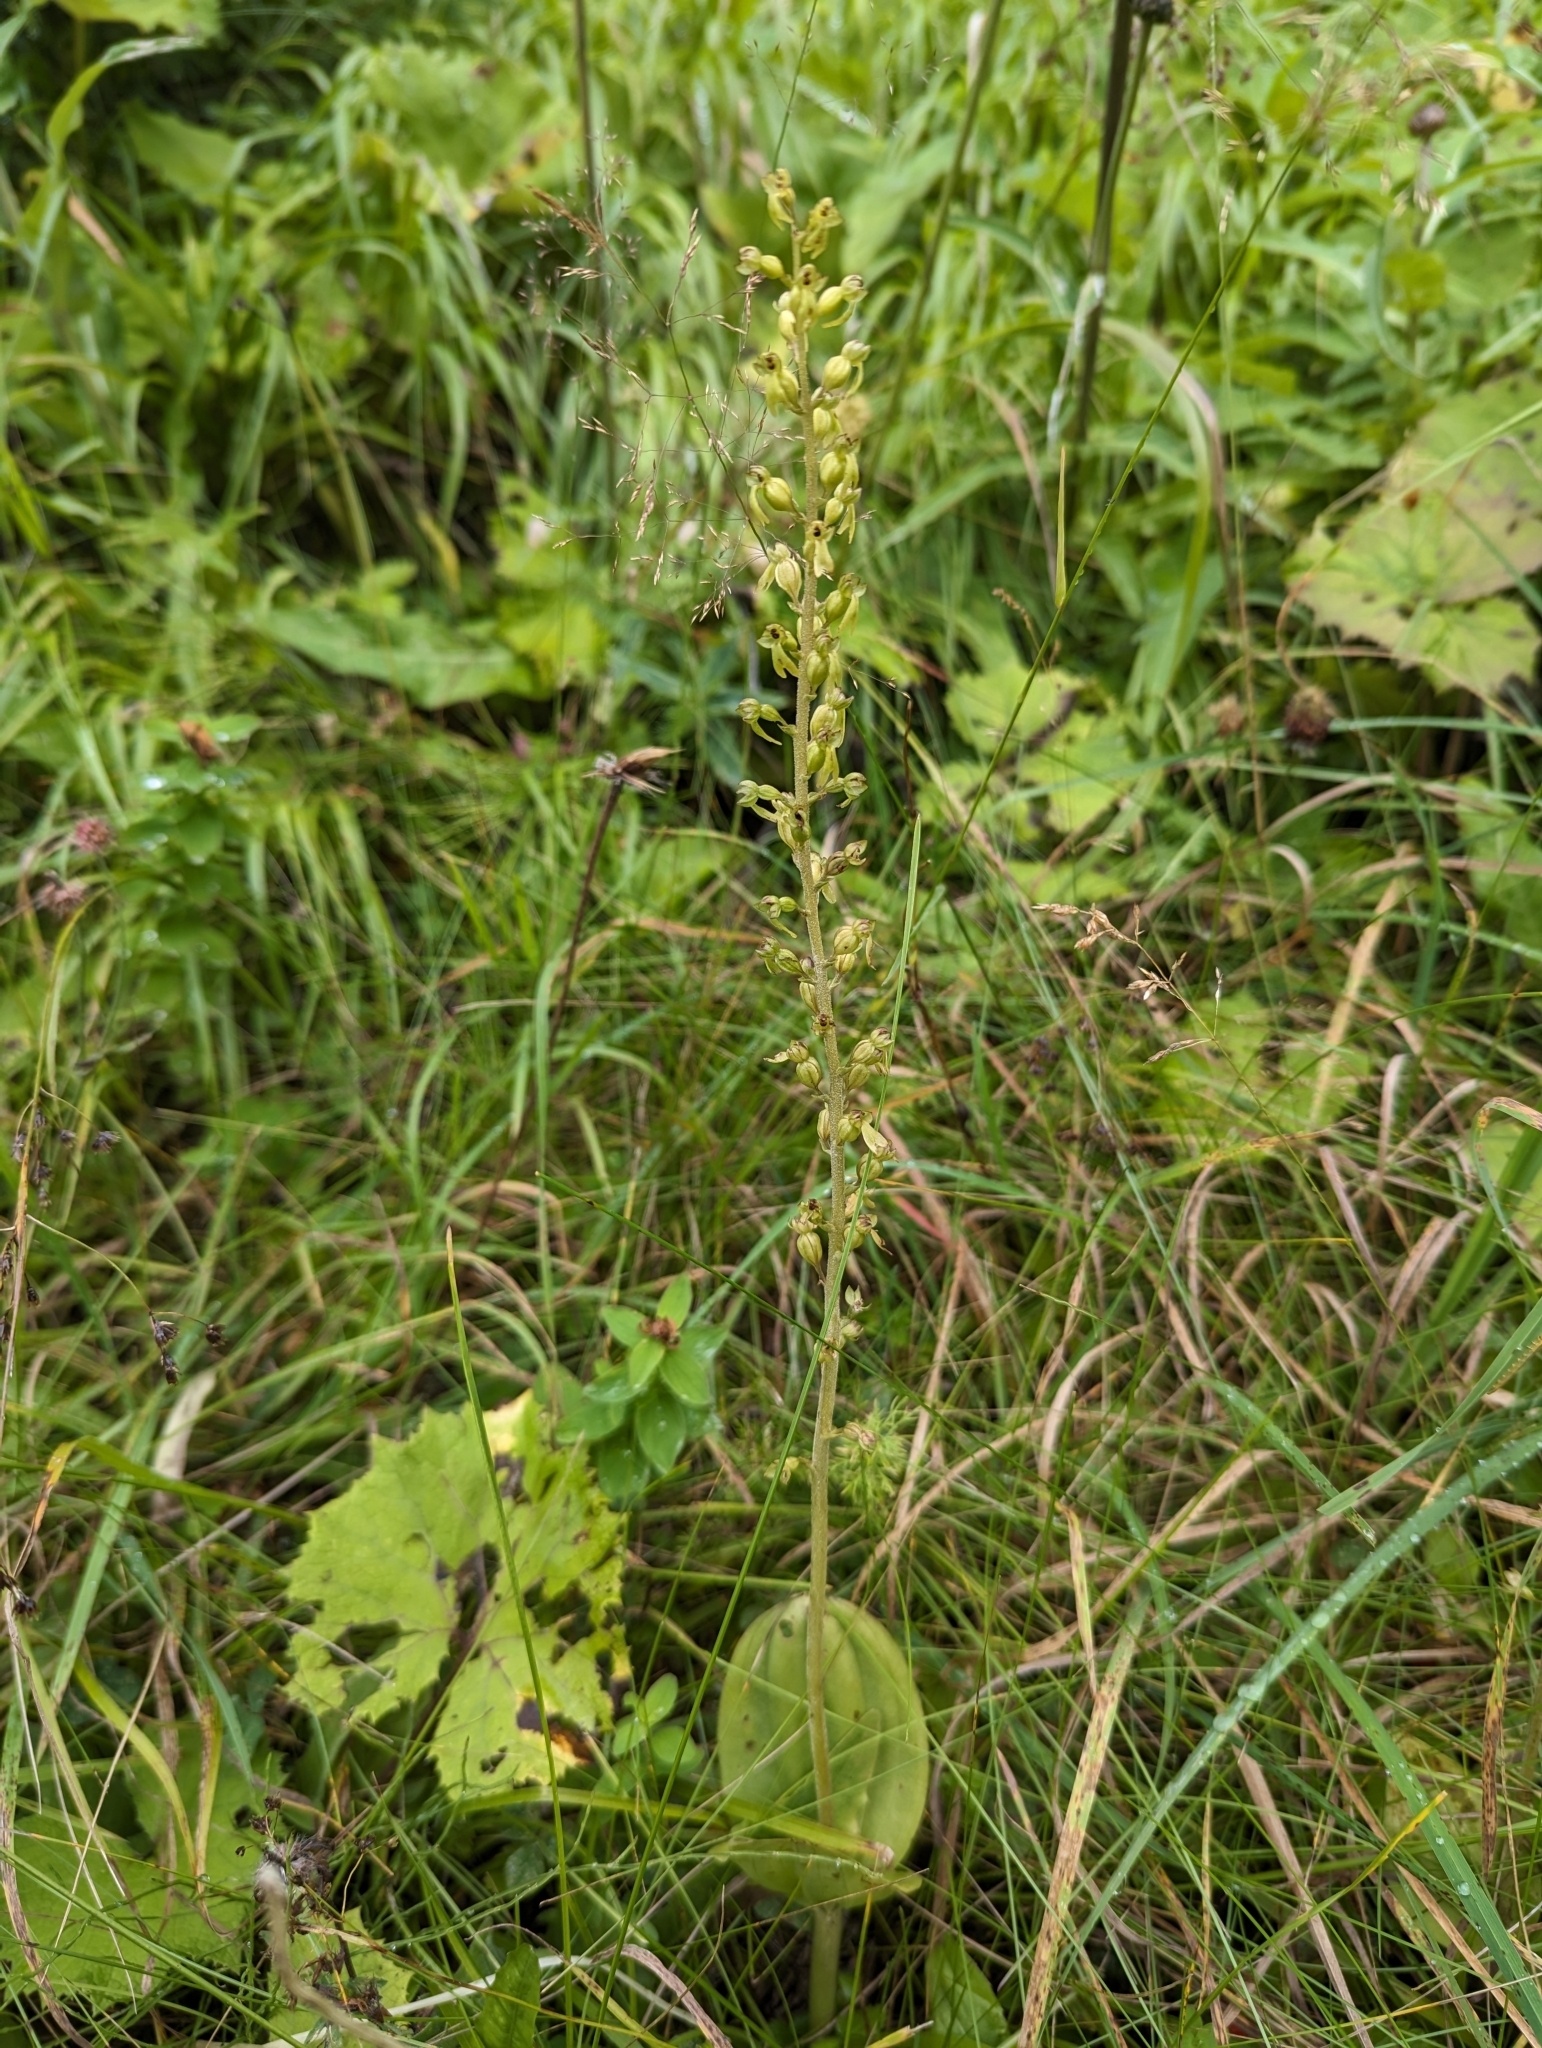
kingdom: Plantae
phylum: Tracheophyta
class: Liliopsida
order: Asparagales
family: Orchidaceae
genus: Neottia
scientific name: Neottia ovata
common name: Common twayblade
